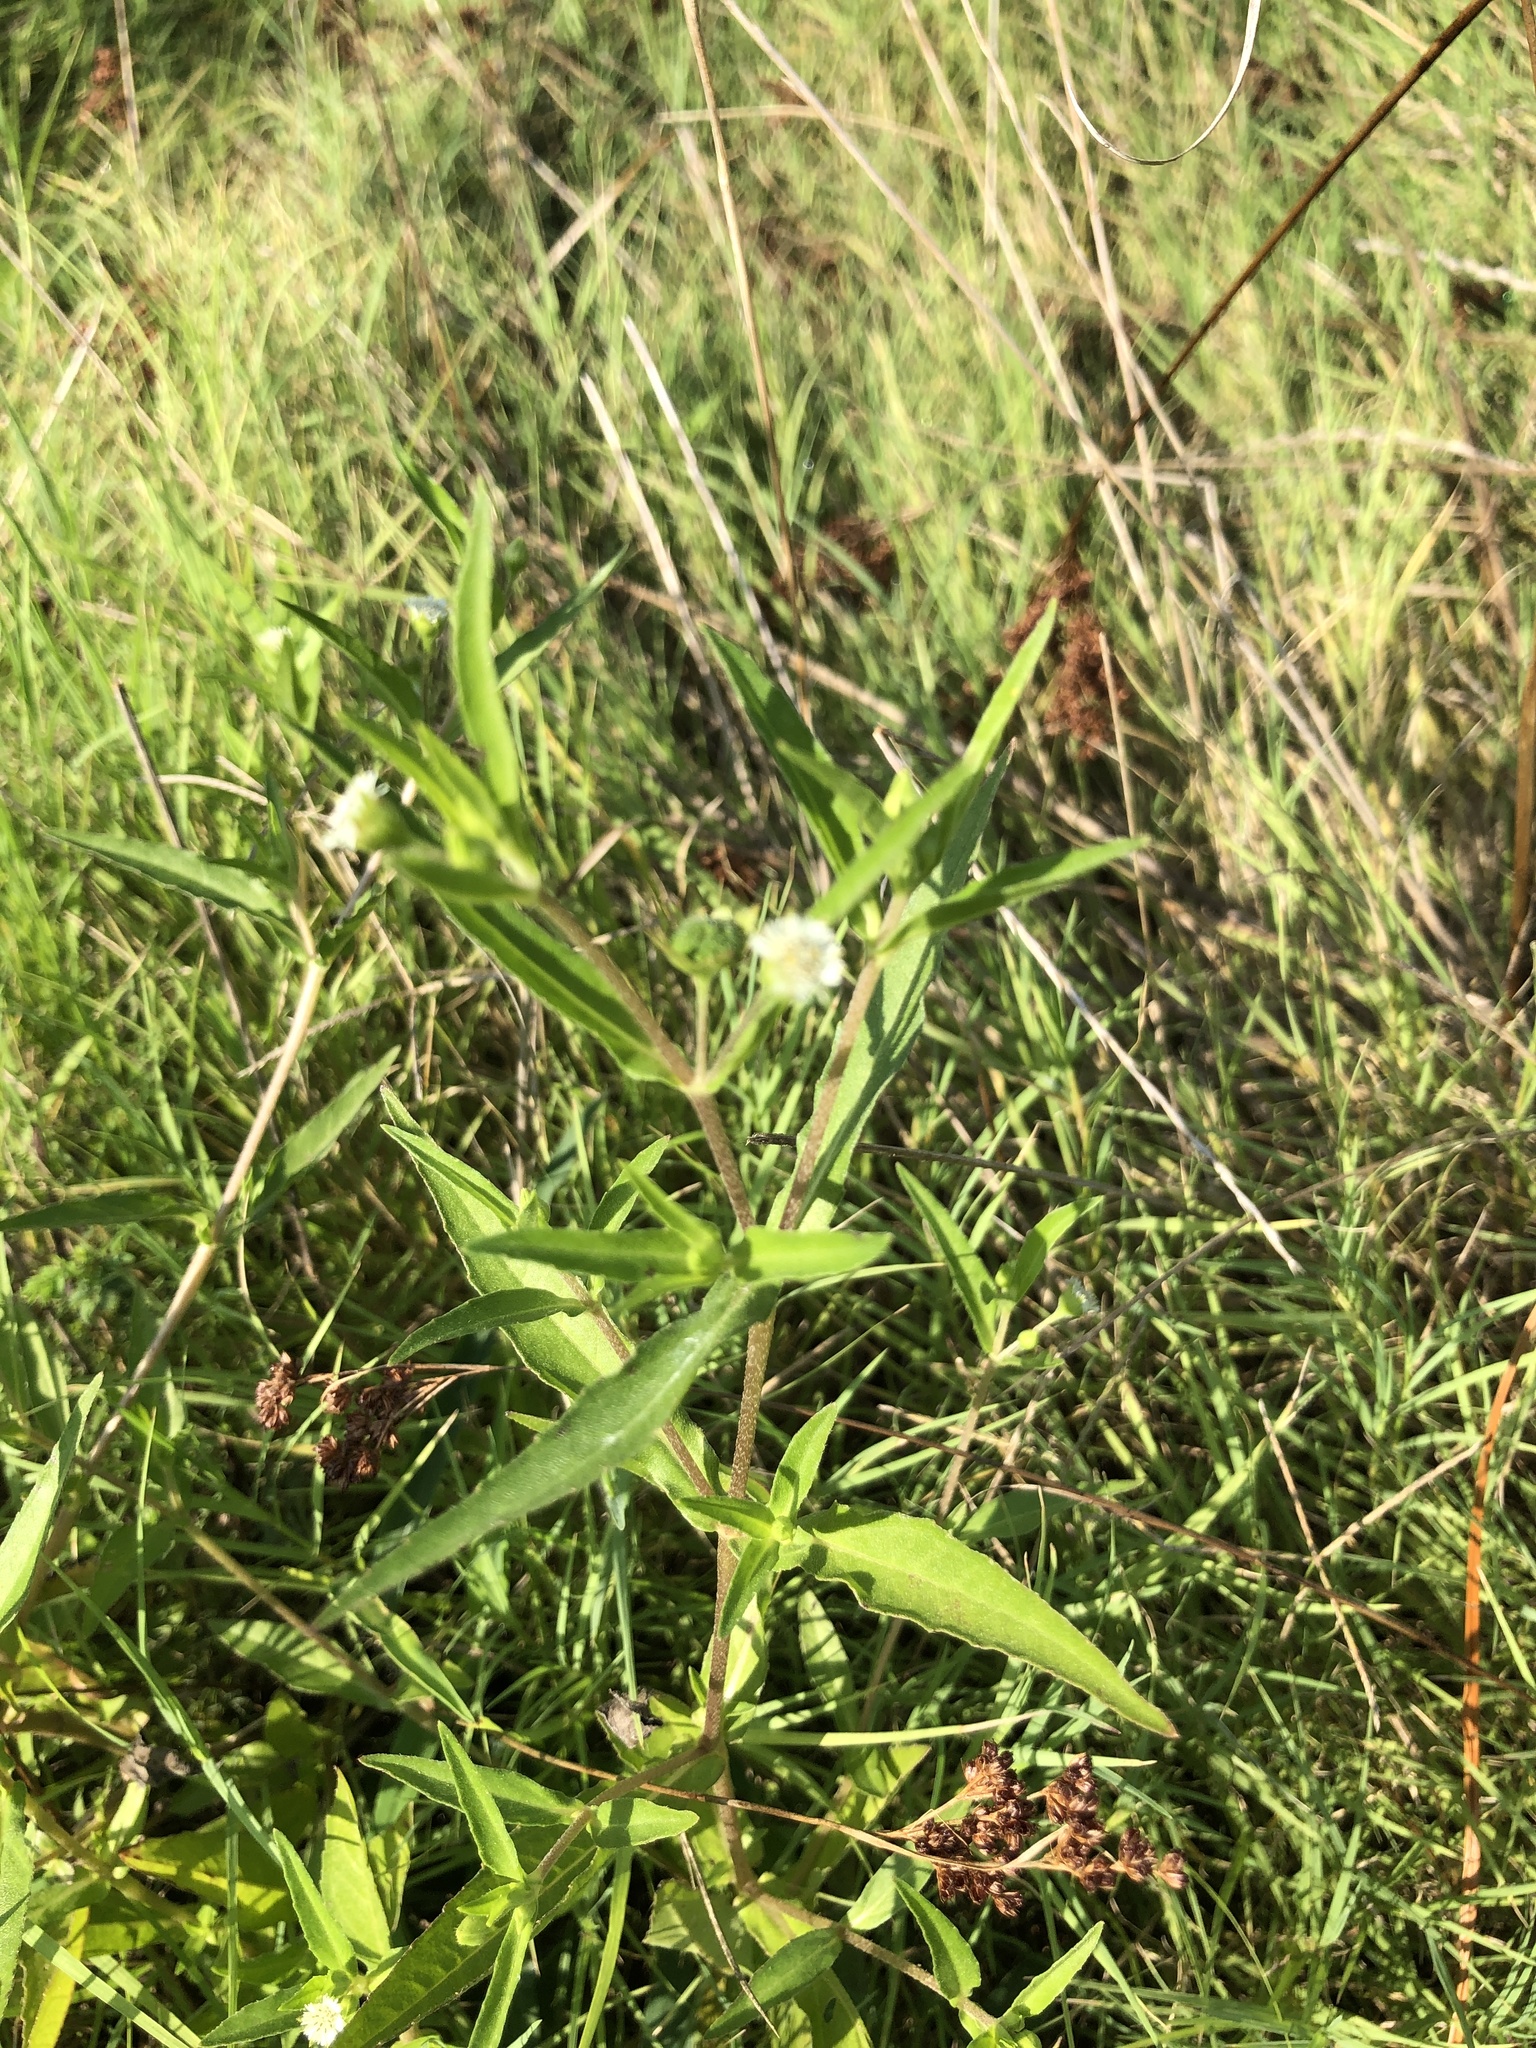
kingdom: Plantae
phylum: Tracheophyta
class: Magnoliopsida
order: Asterales
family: Asteraceae
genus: Eclipta
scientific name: Eclipta prostrata
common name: False daisy
